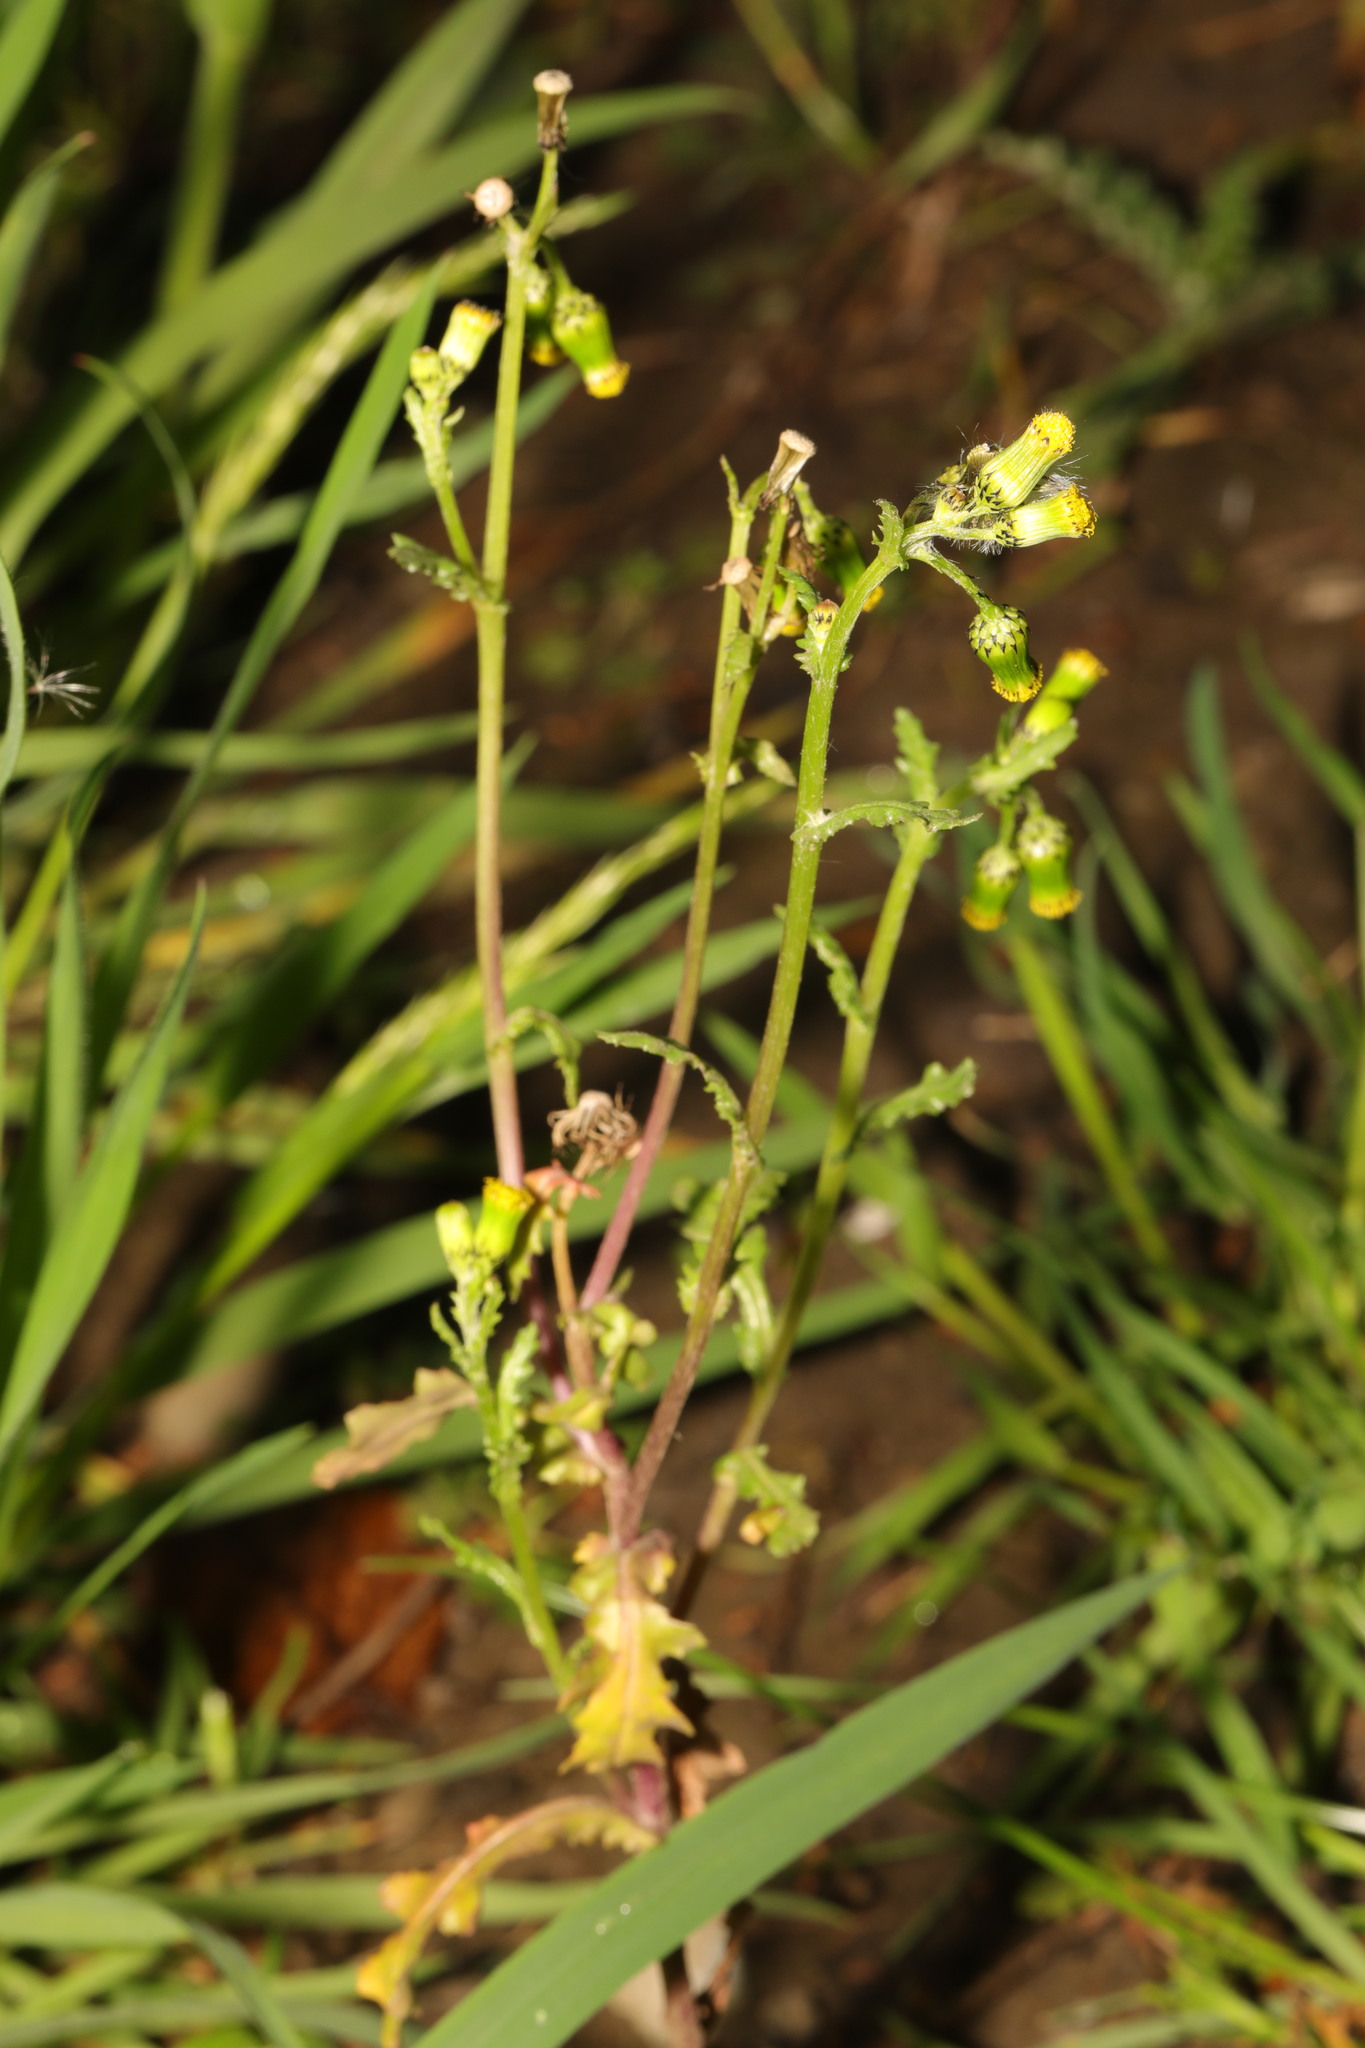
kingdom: Plantae
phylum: Tracheophyta
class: Magnoliopsida
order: Asterales
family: Asteraceae
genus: Senecio
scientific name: Senecio vulgaris
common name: Old-man-in-the-spring
